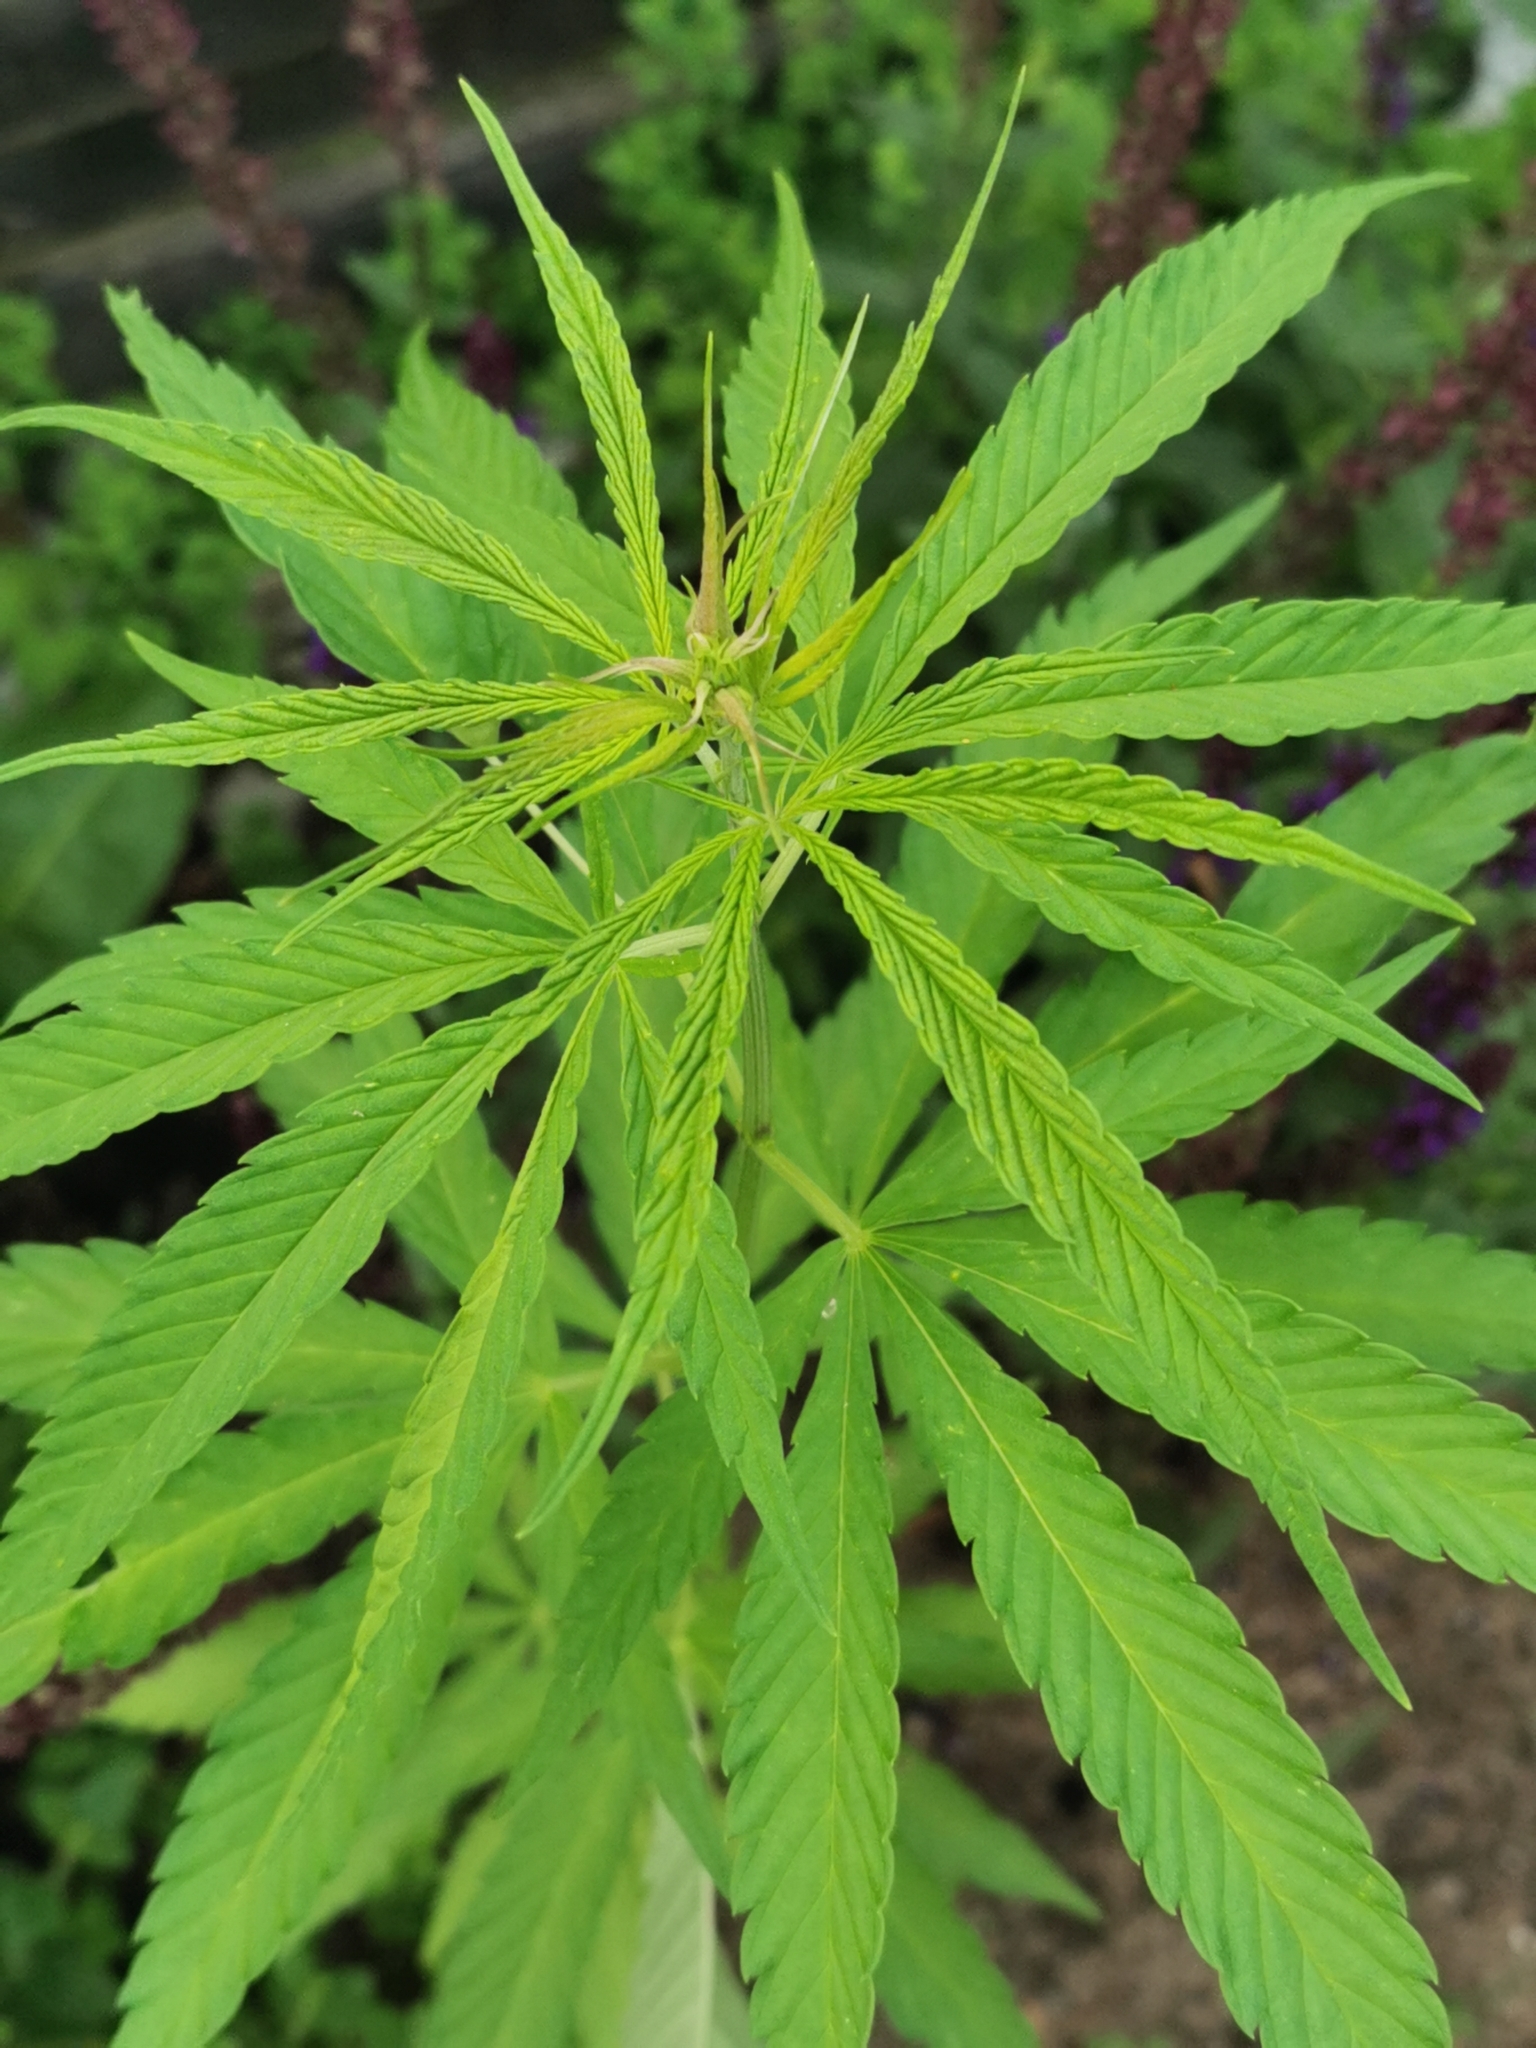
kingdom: Plantae
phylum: Tracheophyta
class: Magnoliopsida
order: Rosales
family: Cannabaceae
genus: Cannabis
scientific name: Cannabis sativa
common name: Hemp
